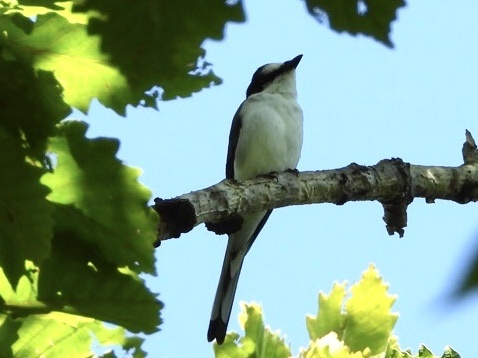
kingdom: Animalia
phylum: Chordata
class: Aves
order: Passeriformes
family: Campephagidae
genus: Pericrocotus
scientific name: Pericrocotus divaricatus
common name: Ashy minivet
